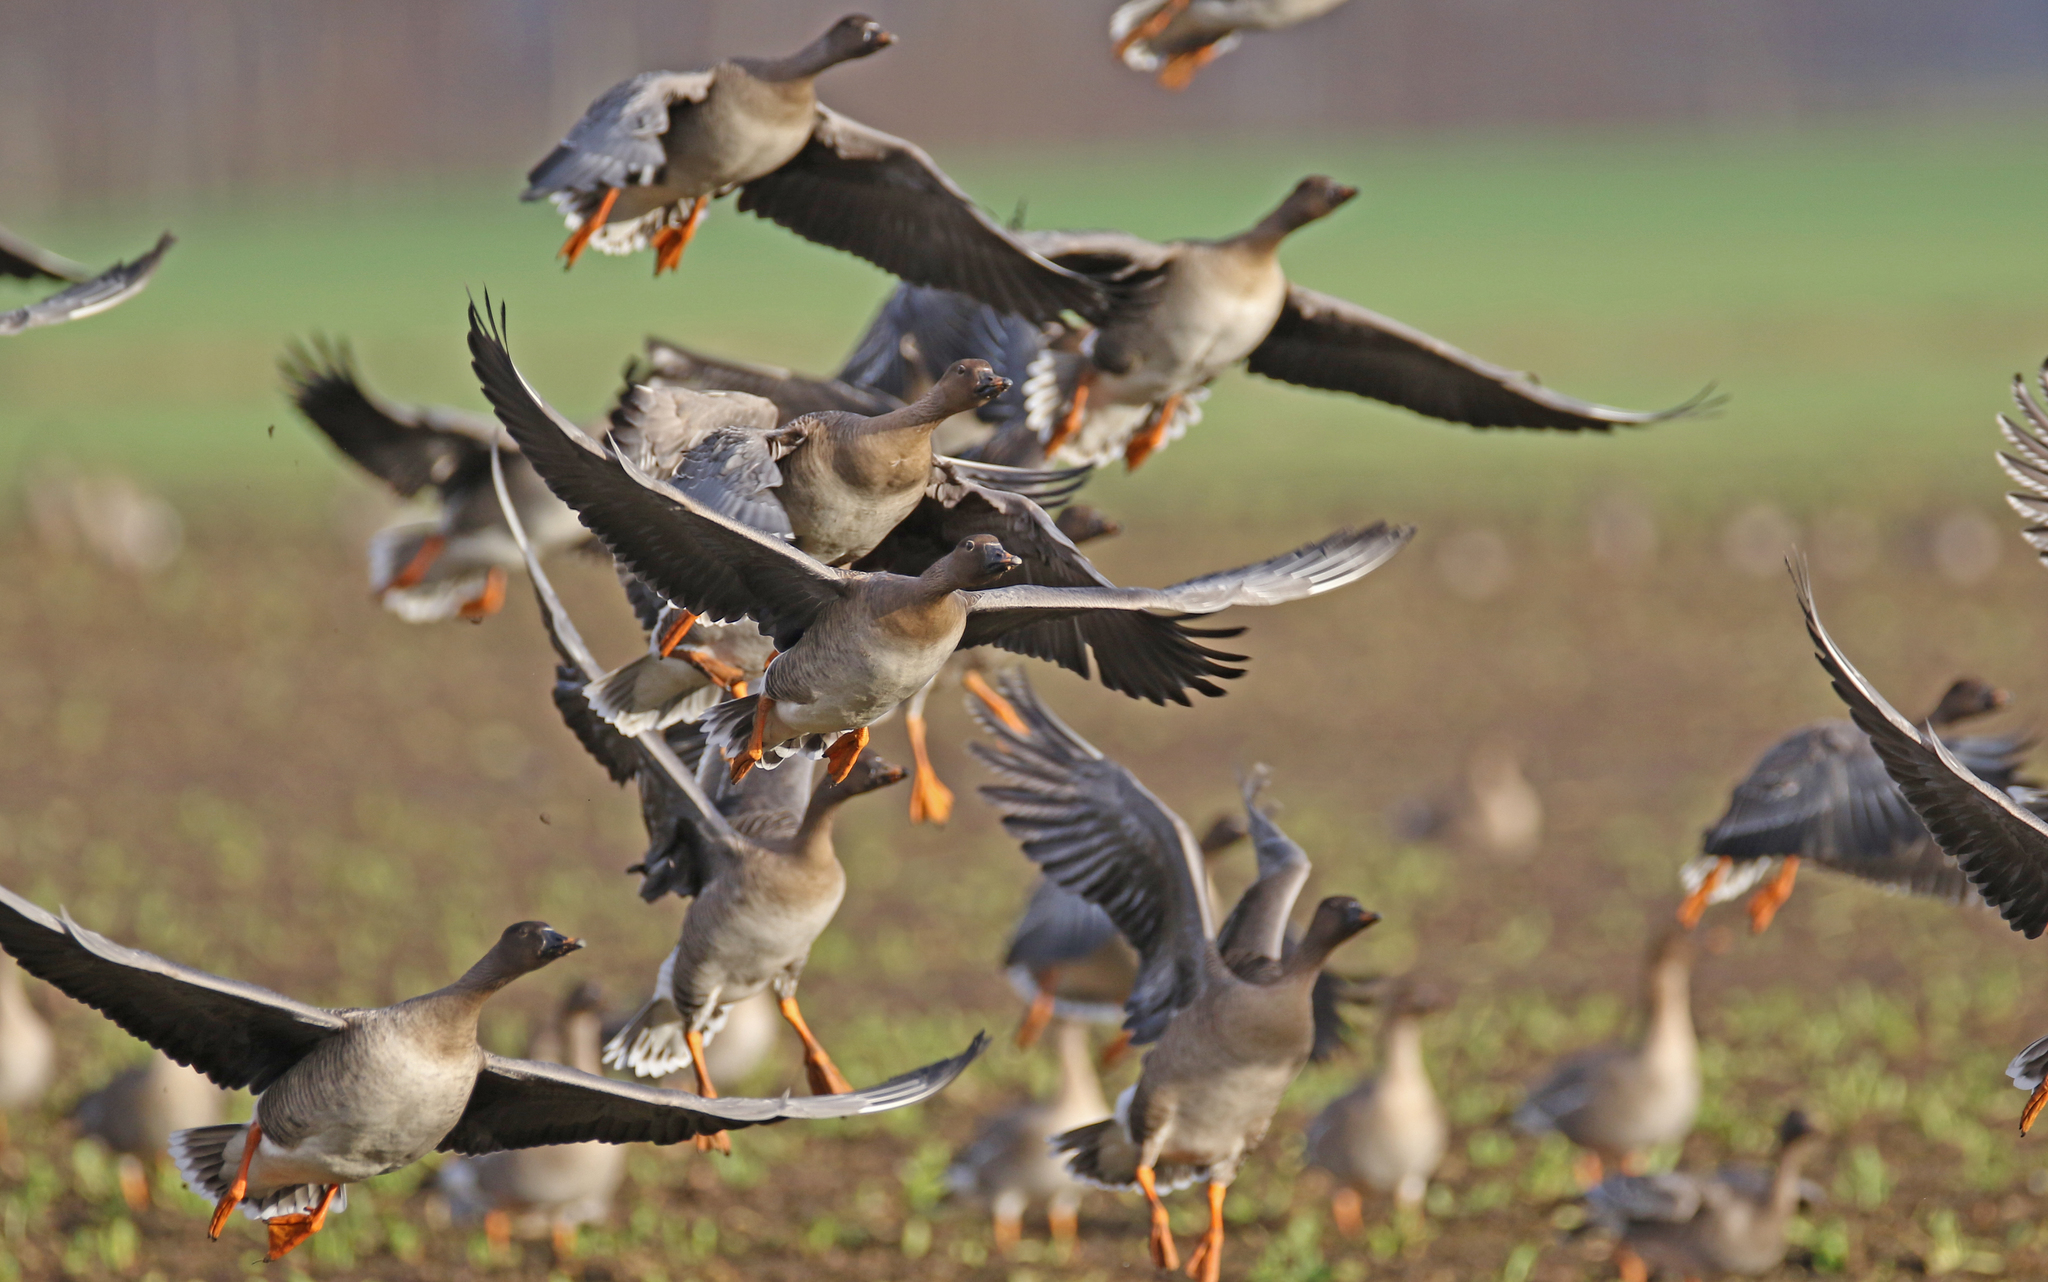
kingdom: Animalia
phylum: Chordata
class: Aves
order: Anseriformes
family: Anatidae
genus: Anser
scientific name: Anser serrirostris
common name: Tundra bean goose
